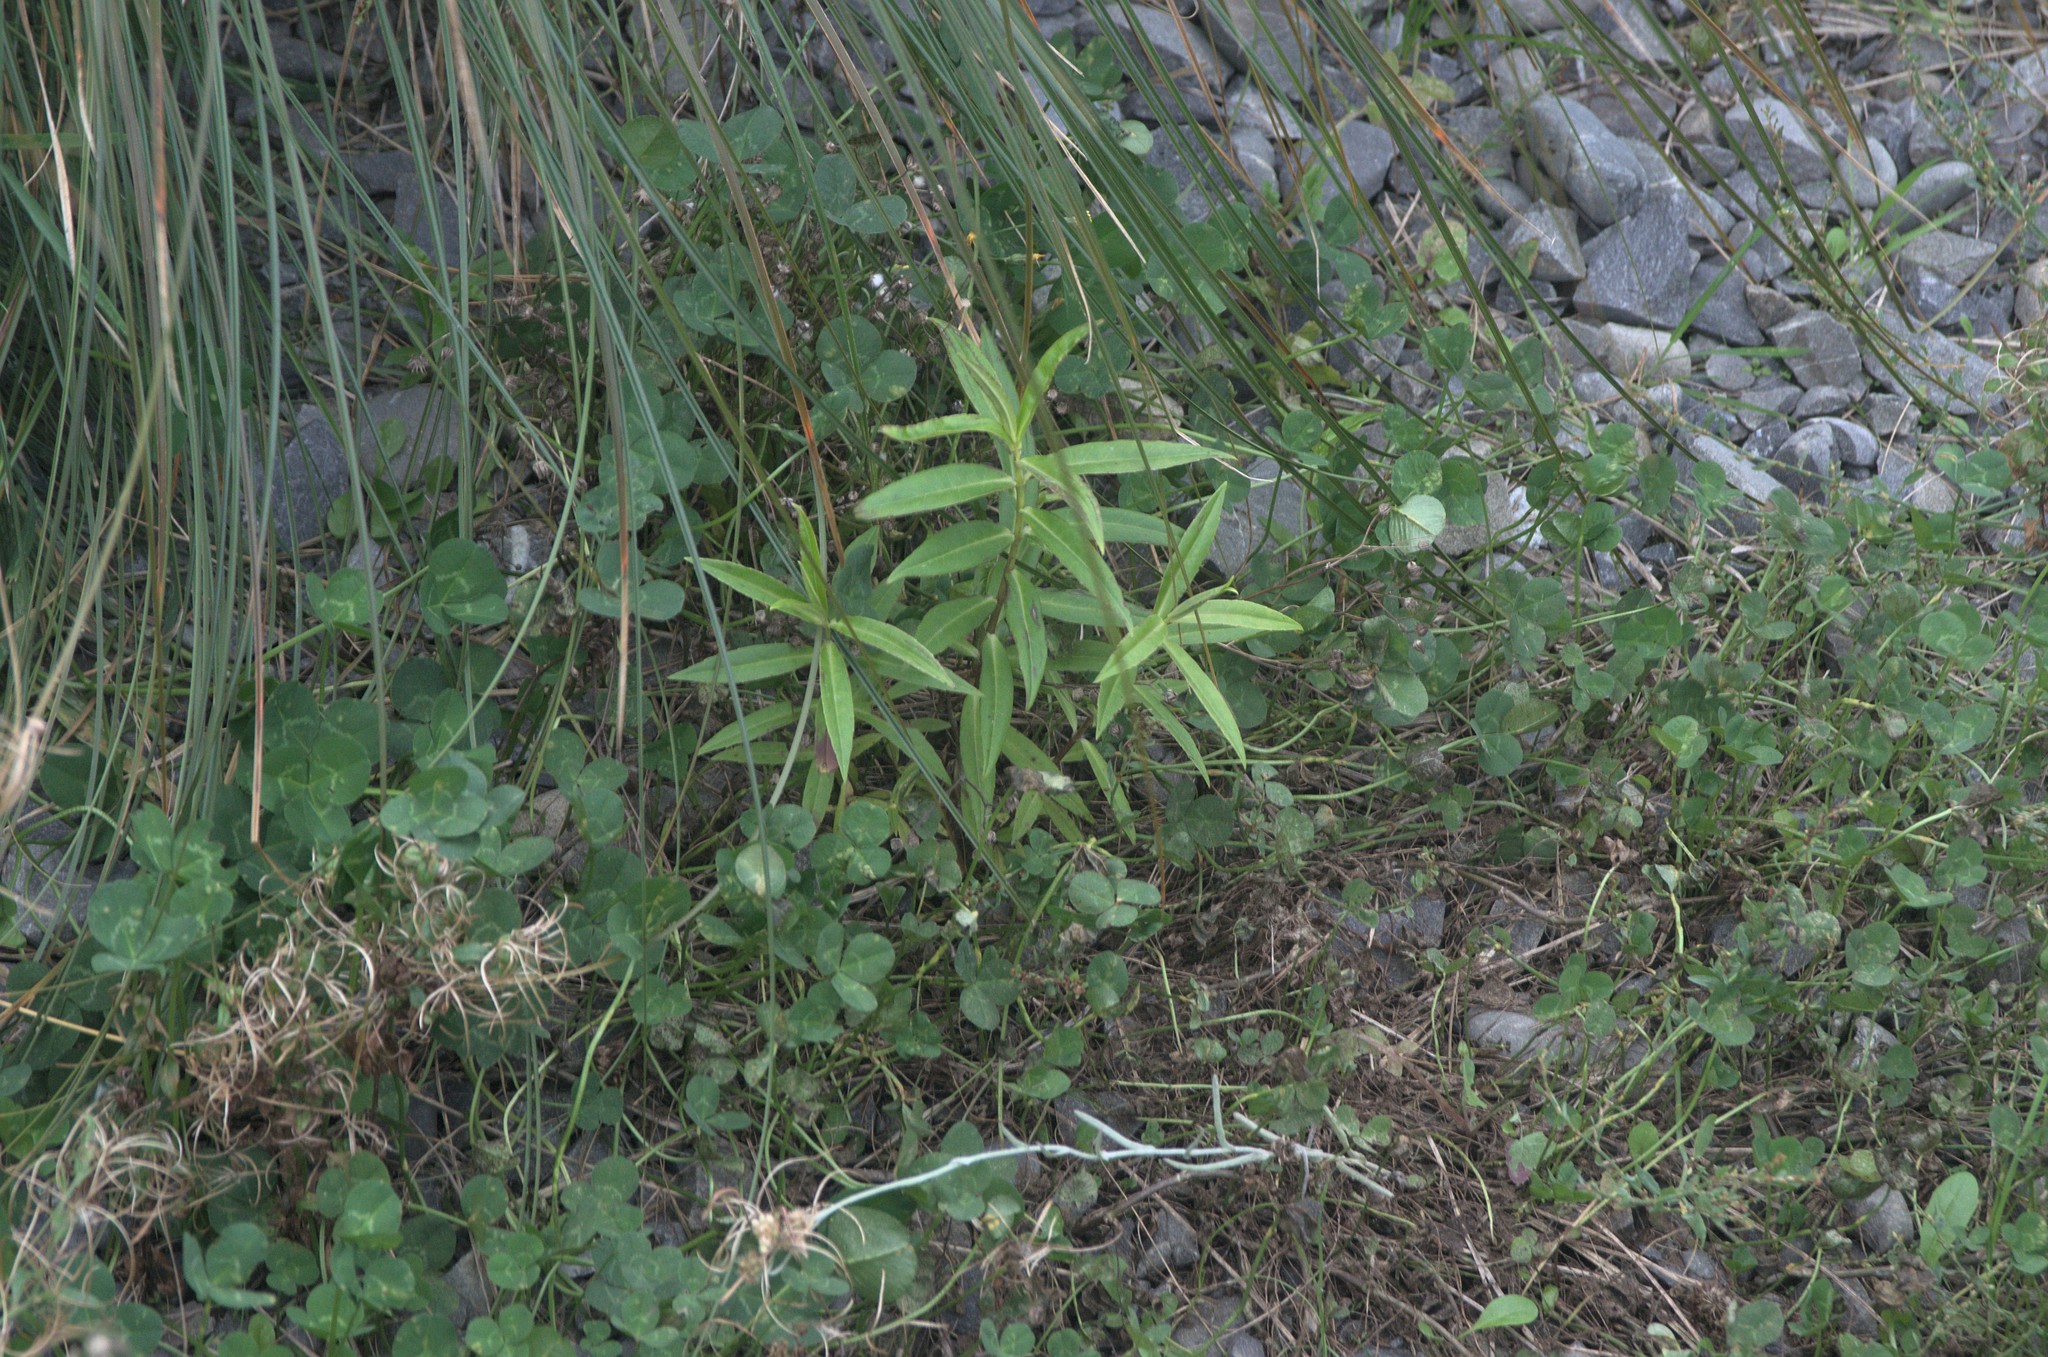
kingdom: Plantae
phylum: Tracheophyta
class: Magnoliopsida
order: Lamiales
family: Plantaginaceae
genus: Veronica
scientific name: Veronica salicifolia
